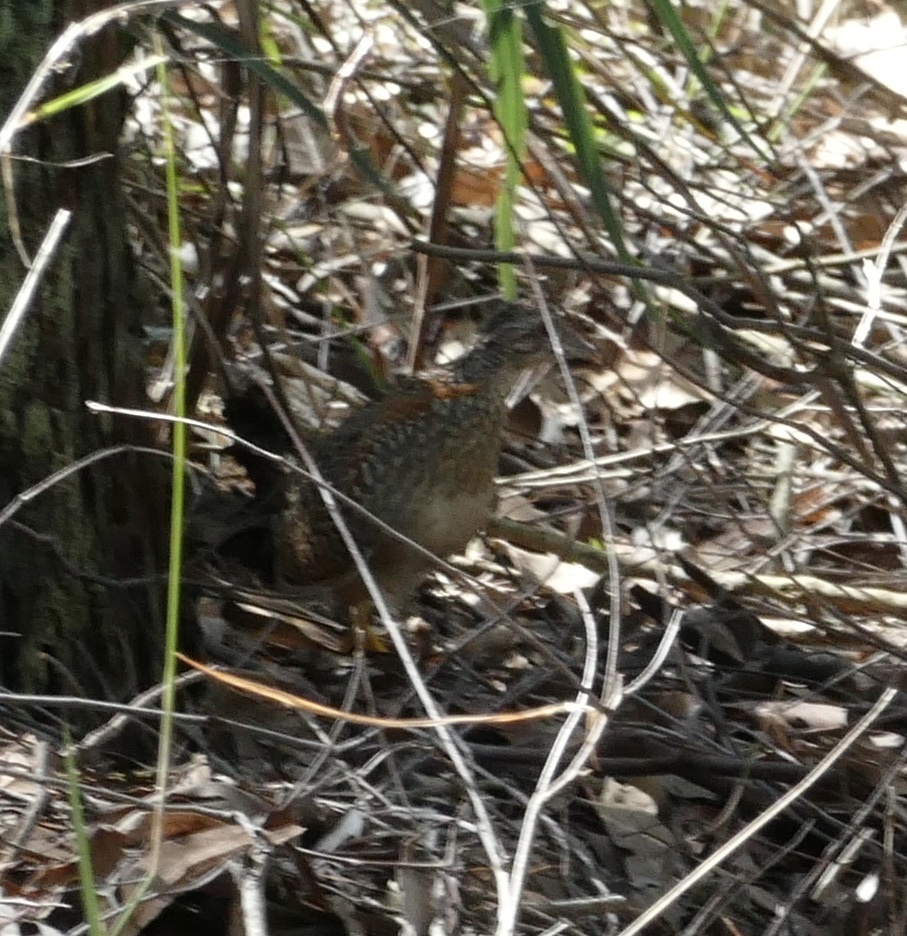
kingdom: Animalia
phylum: Chordata
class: Aves
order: Charadriiformes
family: Turnicidae
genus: Turnix
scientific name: Turnix varius
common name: Painted buttonquail
